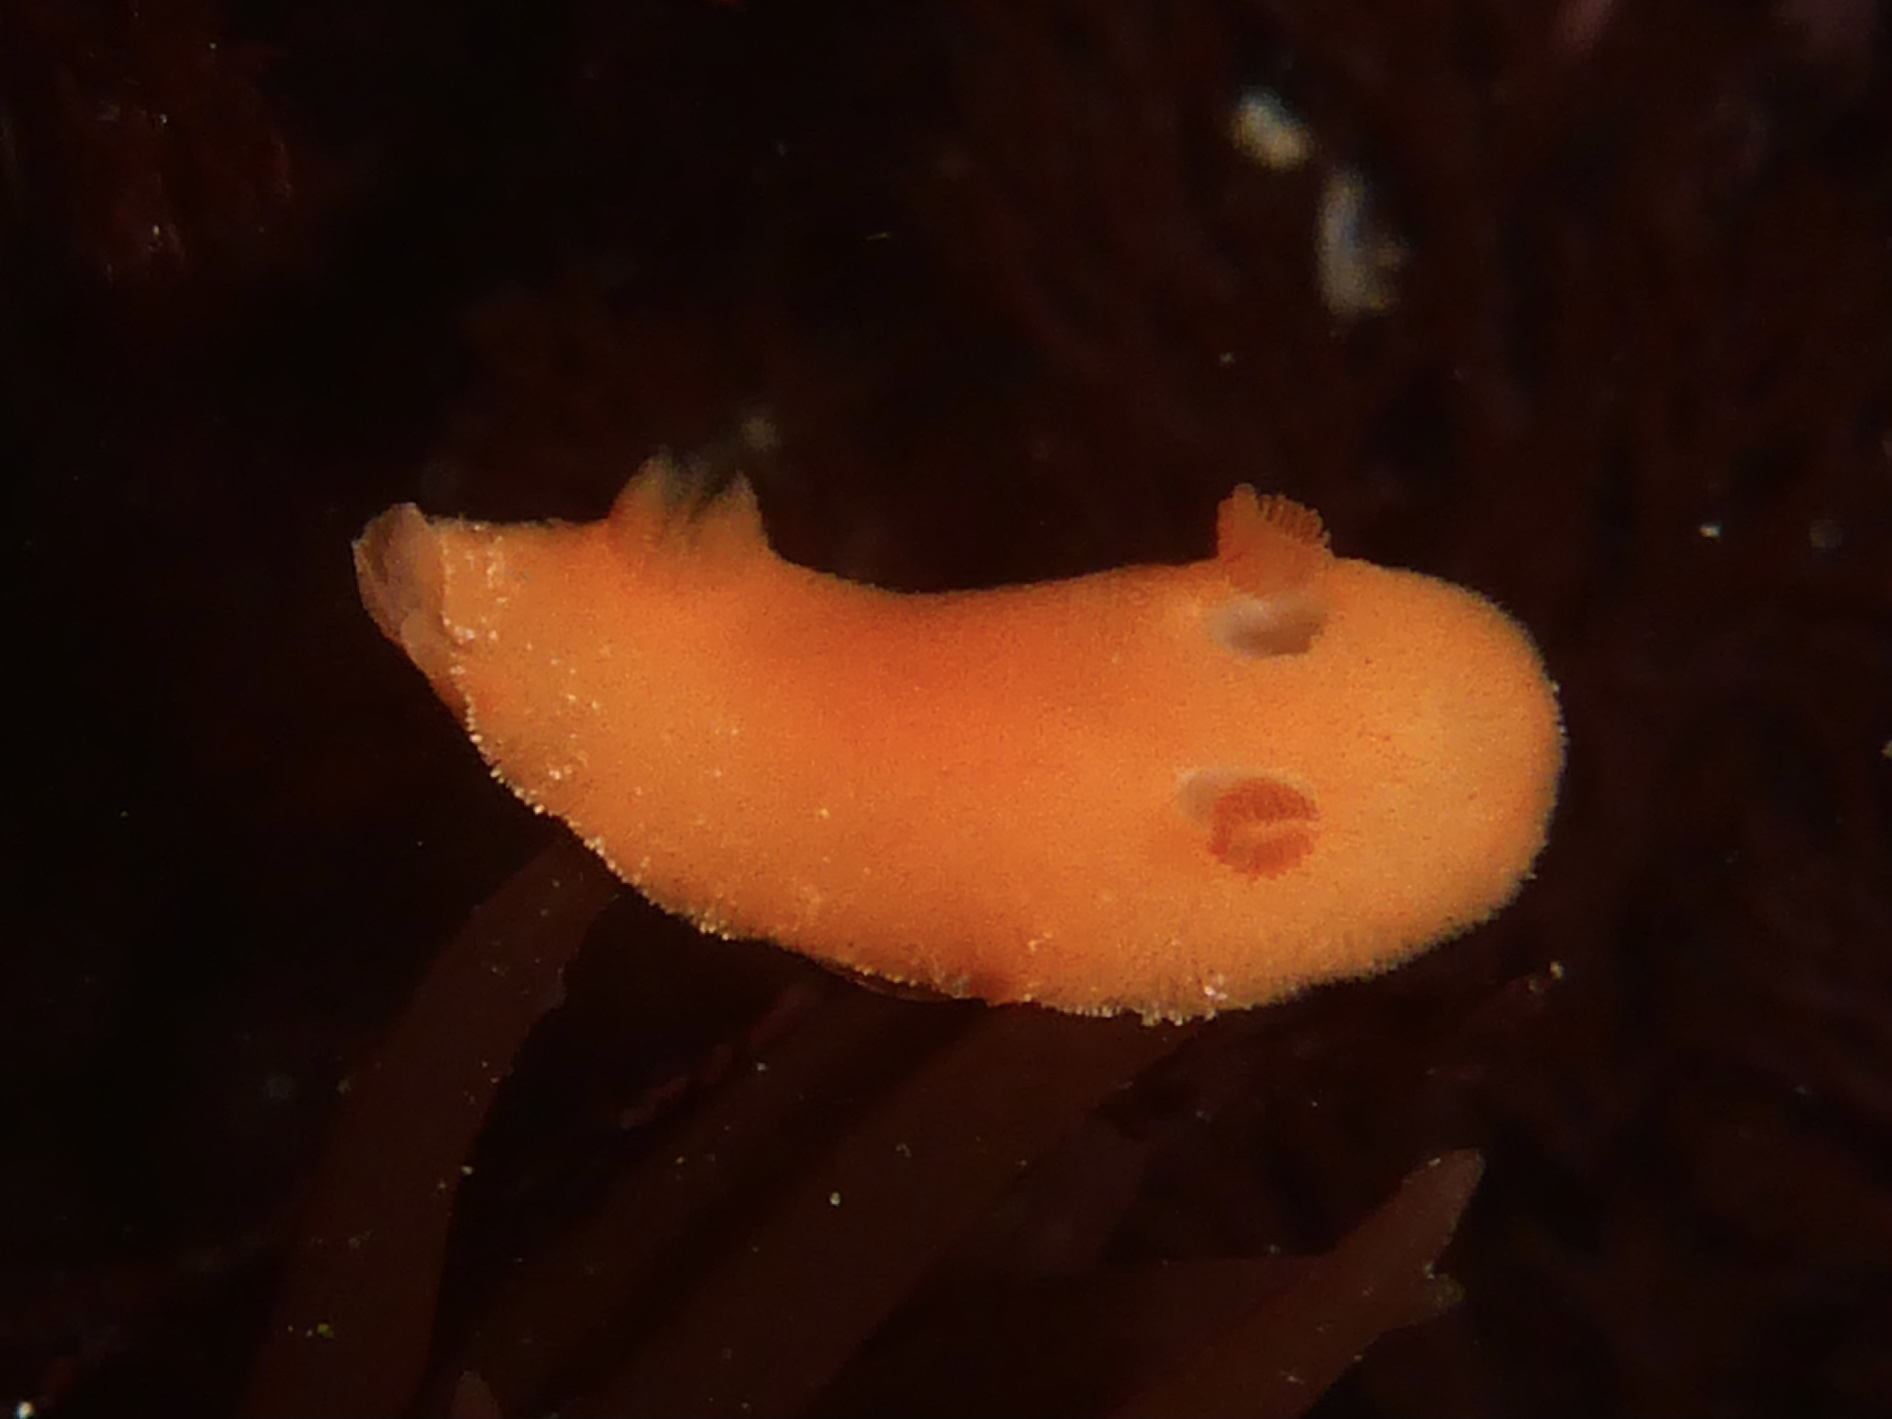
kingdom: Animalia
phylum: Mollusca
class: Gastropoda
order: Nudibranchia
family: Discodorididae
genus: Rostanga
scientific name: Rostanga pulchra
